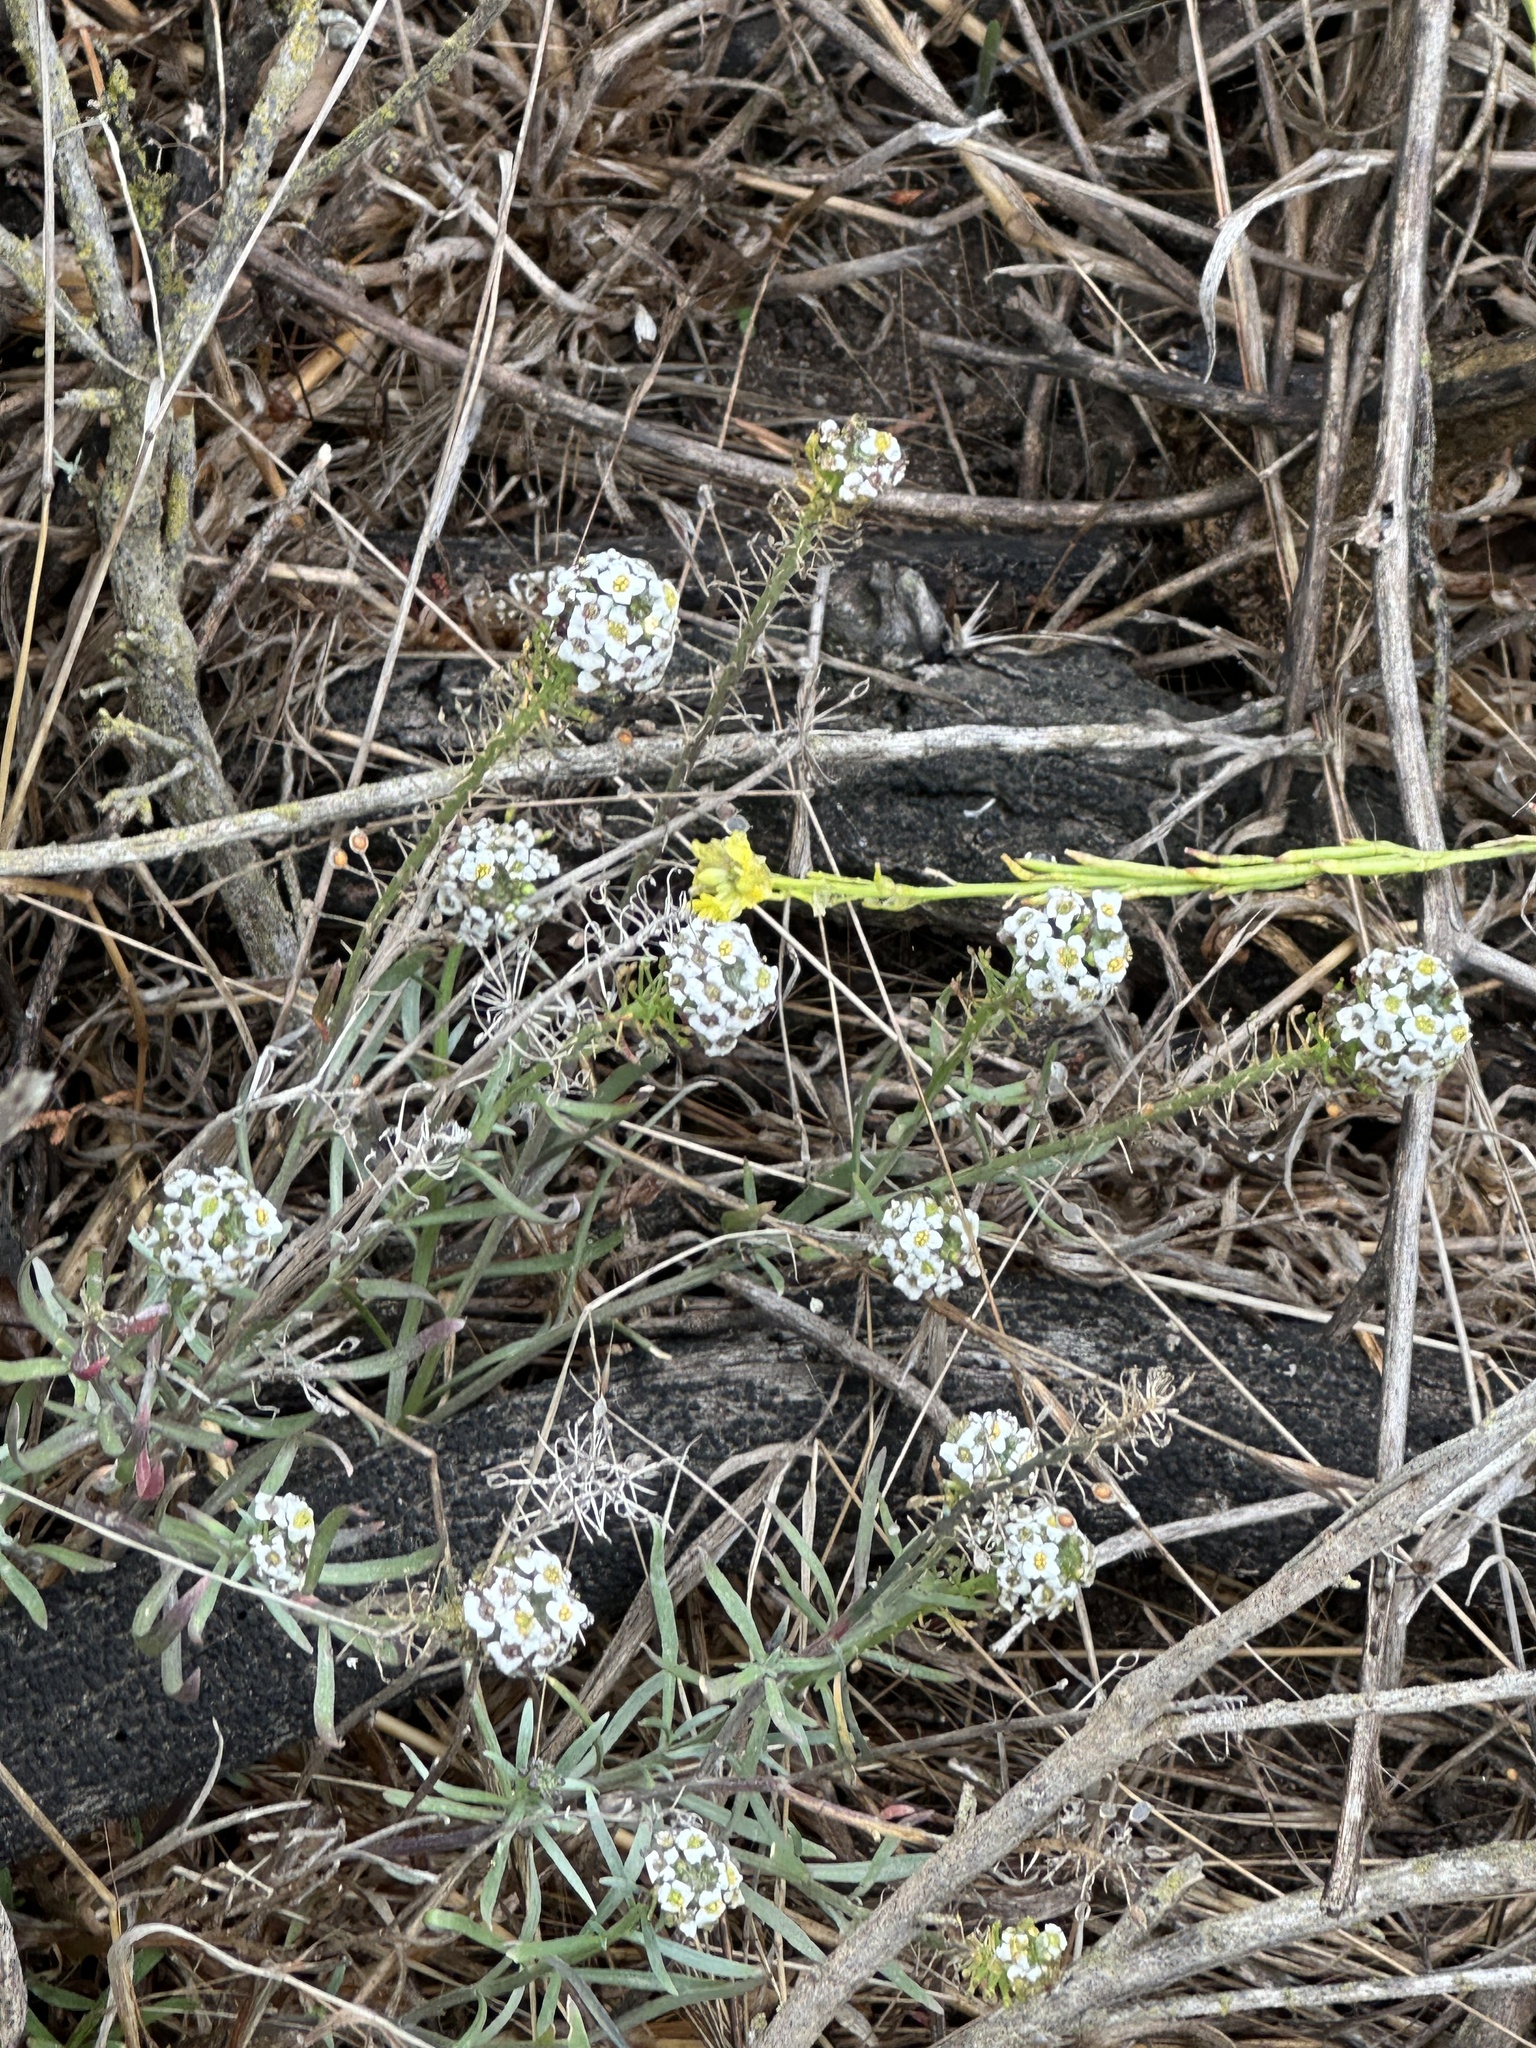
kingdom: Plantae
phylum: Tracheophyta
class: Magnoliopsida
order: Brassicales
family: Brassicaceae
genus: Lobularia
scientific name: Lobularia maritima
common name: Sweet alison
